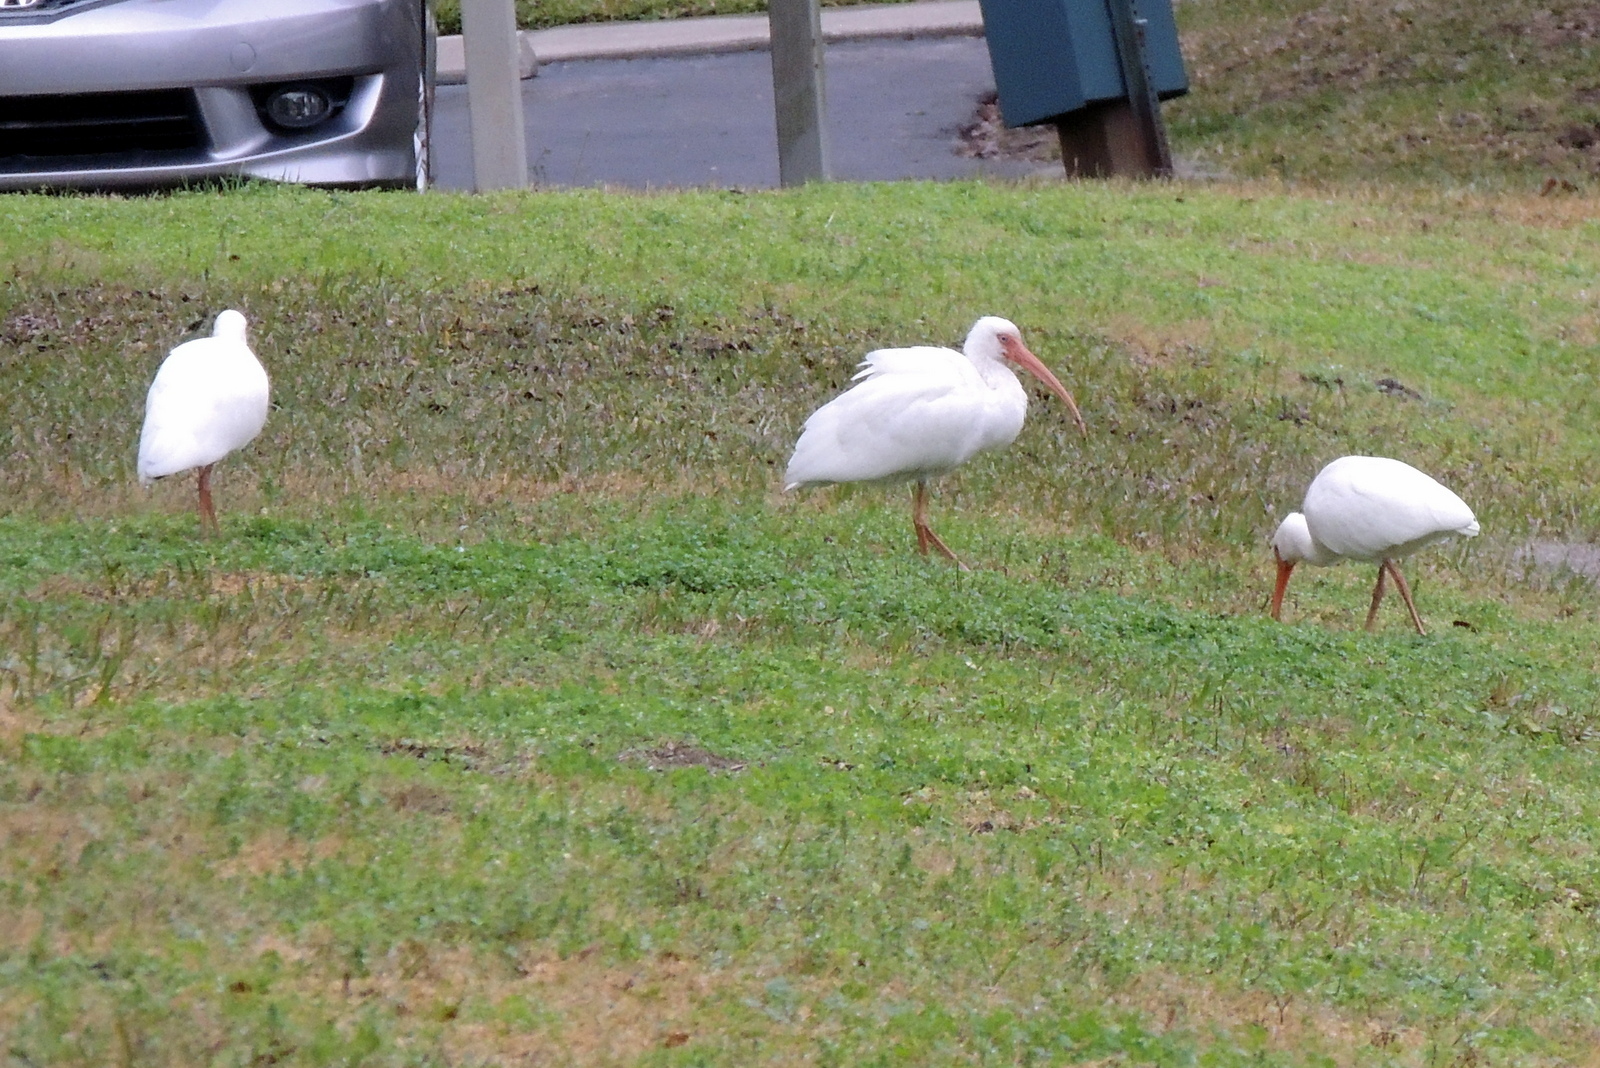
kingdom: Animalia
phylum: Chordata
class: Aves
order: Pelecaniformes
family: Threskiornithidae
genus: Eudocimus
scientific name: Eudocimus albus
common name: White ibis
